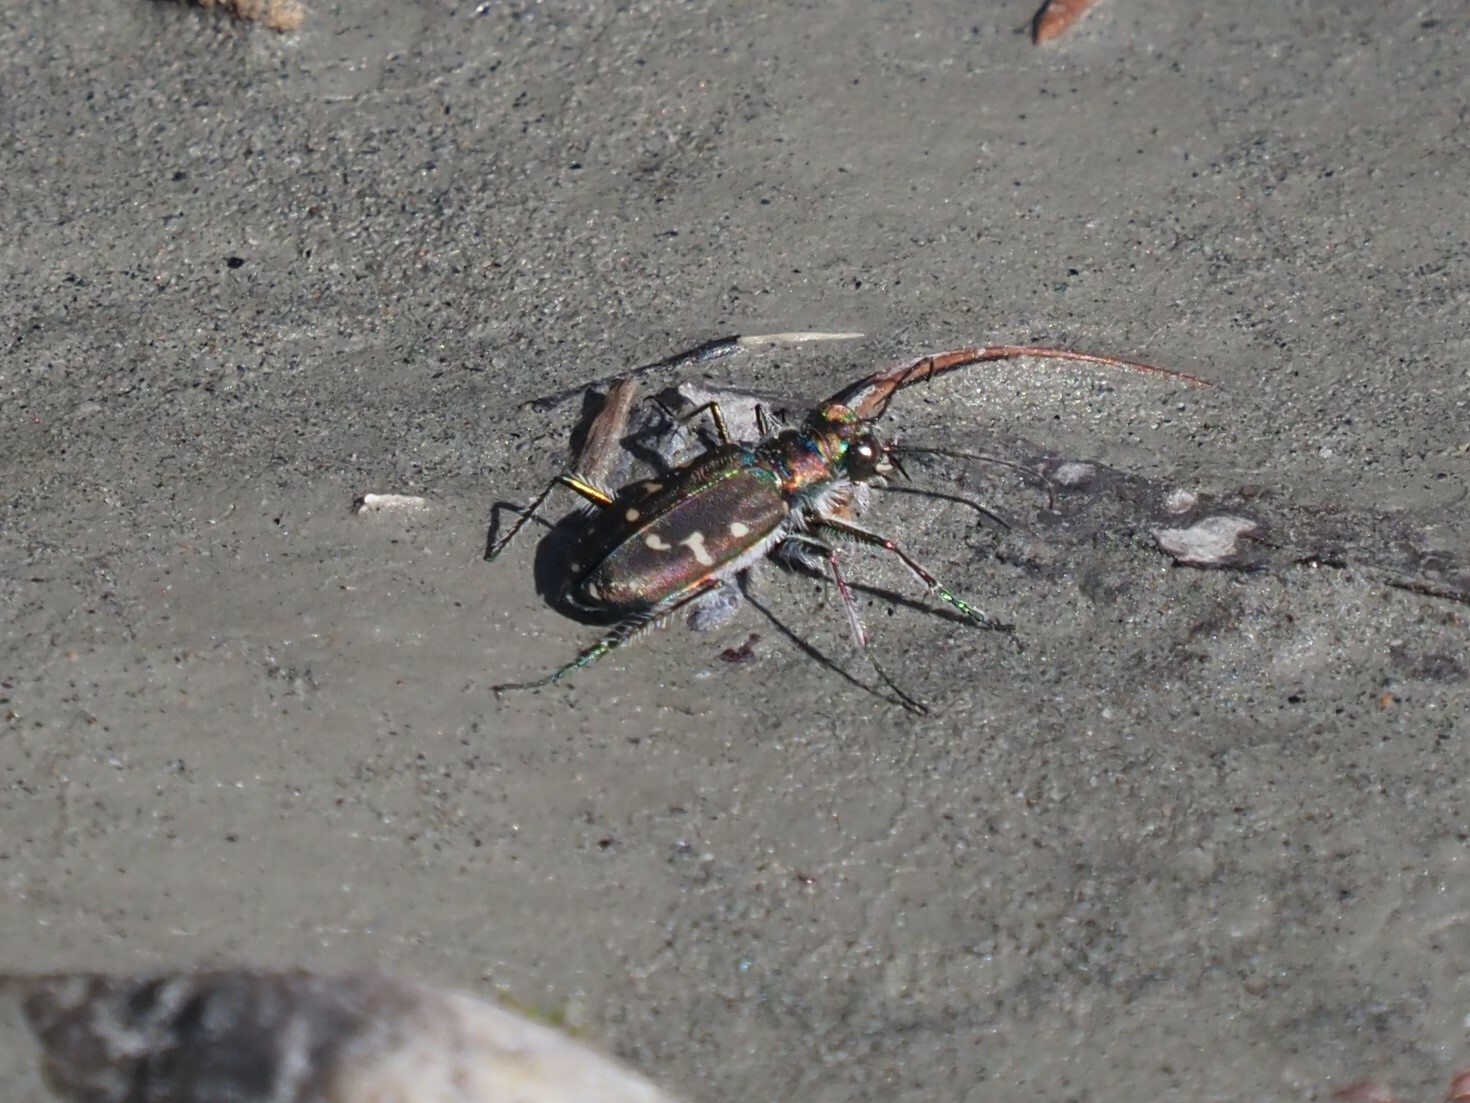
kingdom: Animalia
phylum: Arthropoda
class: Insecta
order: Coleoptera
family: Carabidae
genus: Cicindela
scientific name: Cicindela oregona
